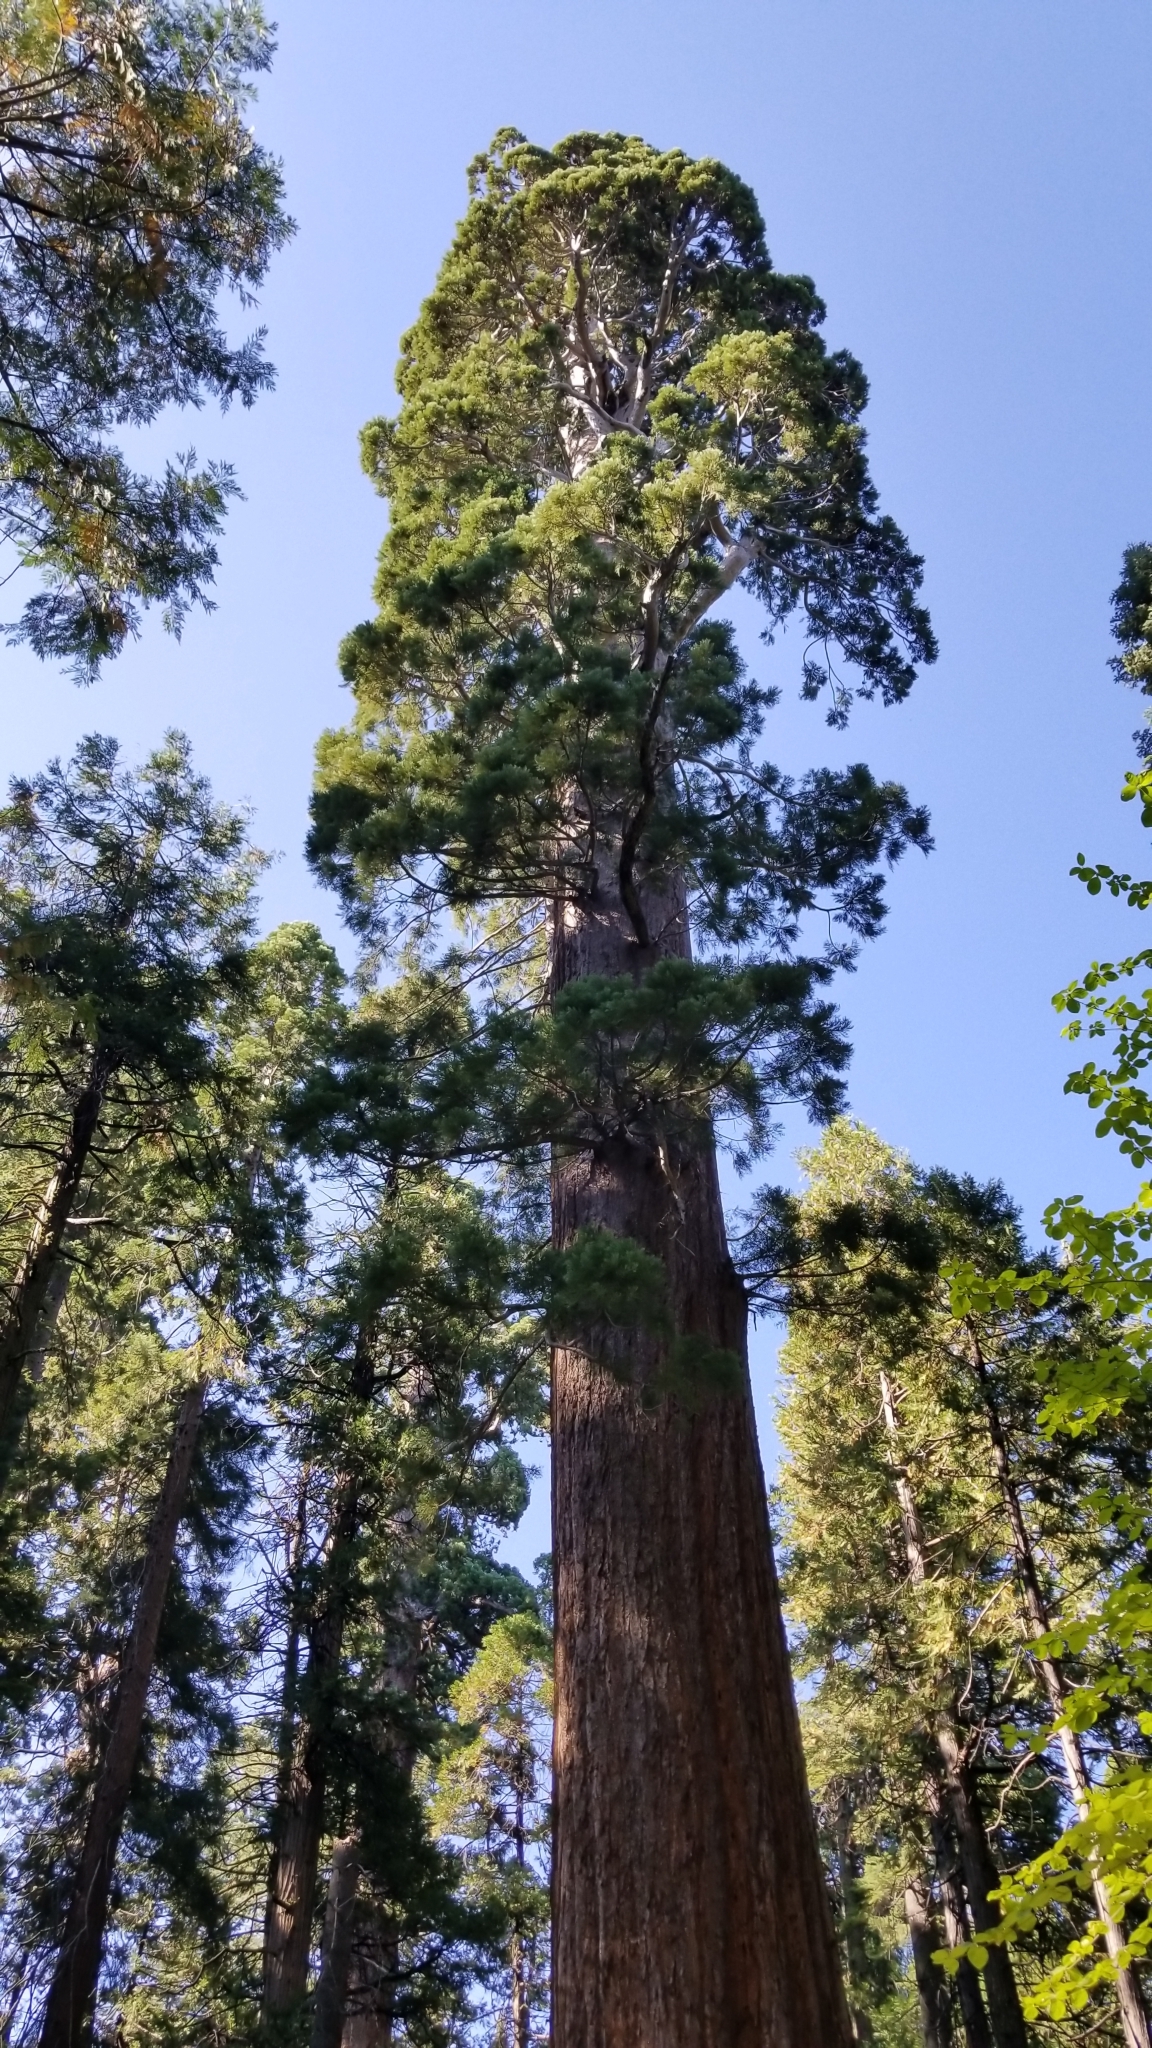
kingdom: Plantae
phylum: Tracheophyta
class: Pinopsida
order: Pinales
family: Cupressaceae
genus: Sequoiadendron
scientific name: Sequoiadendron giganteum
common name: Wellingtonia
